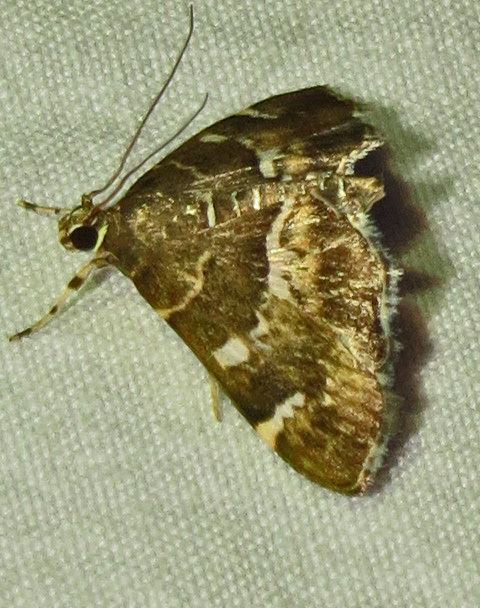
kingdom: Animalia
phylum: Arthropoda
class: Insecta
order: Lepidoptera
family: Crambidae
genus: Hymenia
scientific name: Hymenia perspectalis
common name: Spotted beet webworm
